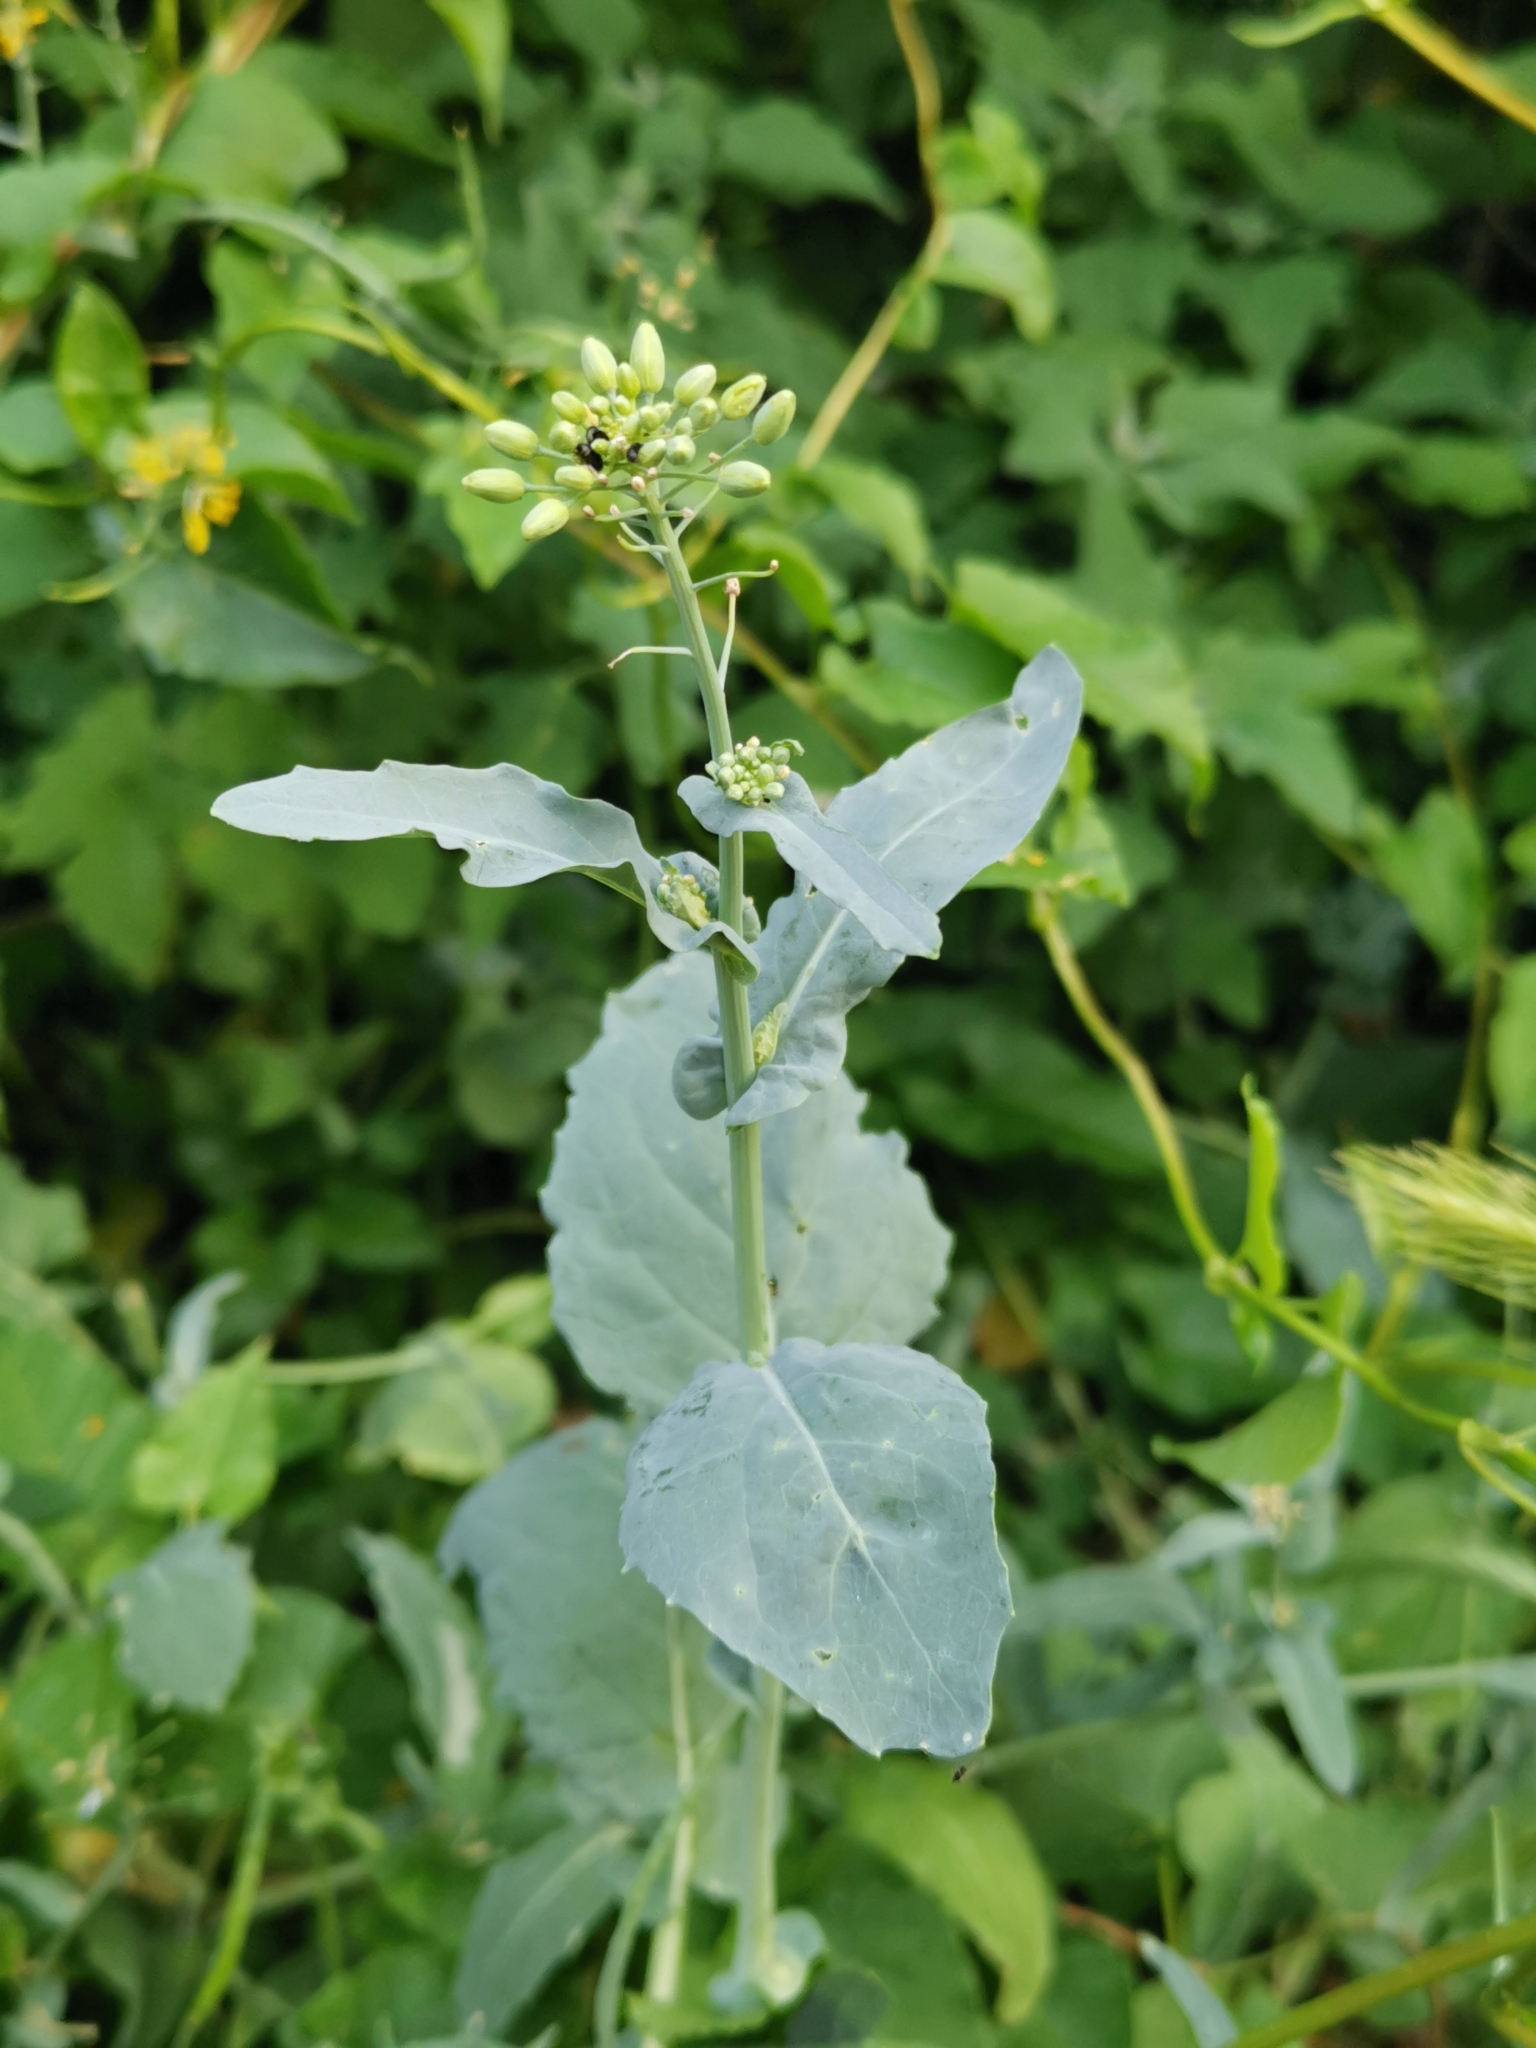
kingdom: Plantae
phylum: Tracheophyta
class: Magnoliopsida
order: Brassicales
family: Brassicaceae
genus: Brassica
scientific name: Brassica napus
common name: Rape
